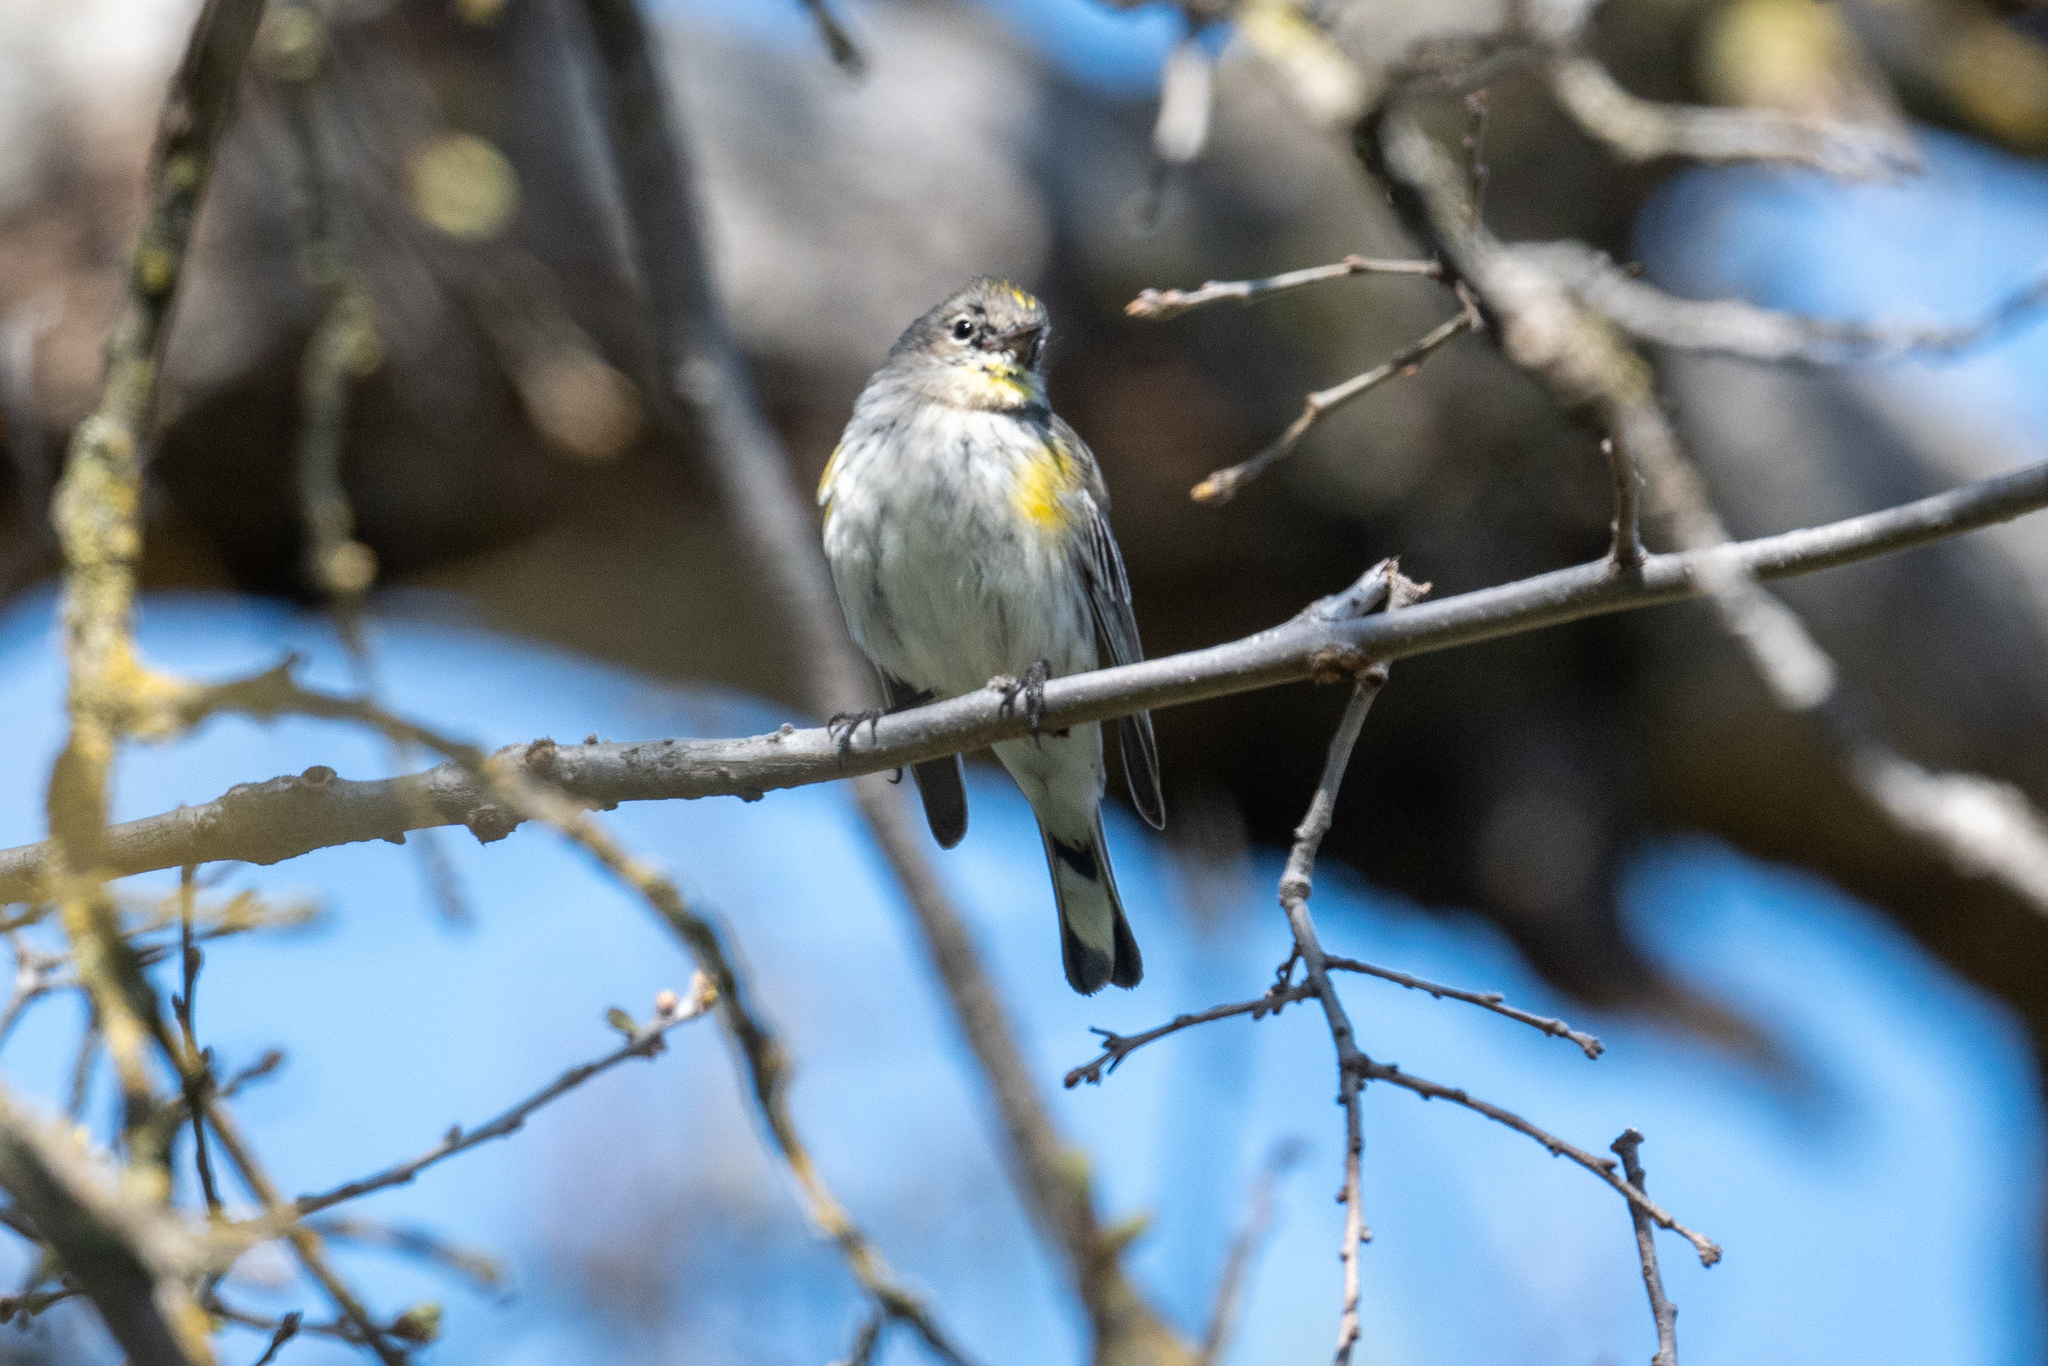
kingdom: Animalia
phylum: Chordata
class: Aves
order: Passeriformes
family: Parulidae
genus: Setophaga
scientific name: Setophaga coronata
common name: Myrtle warbler
